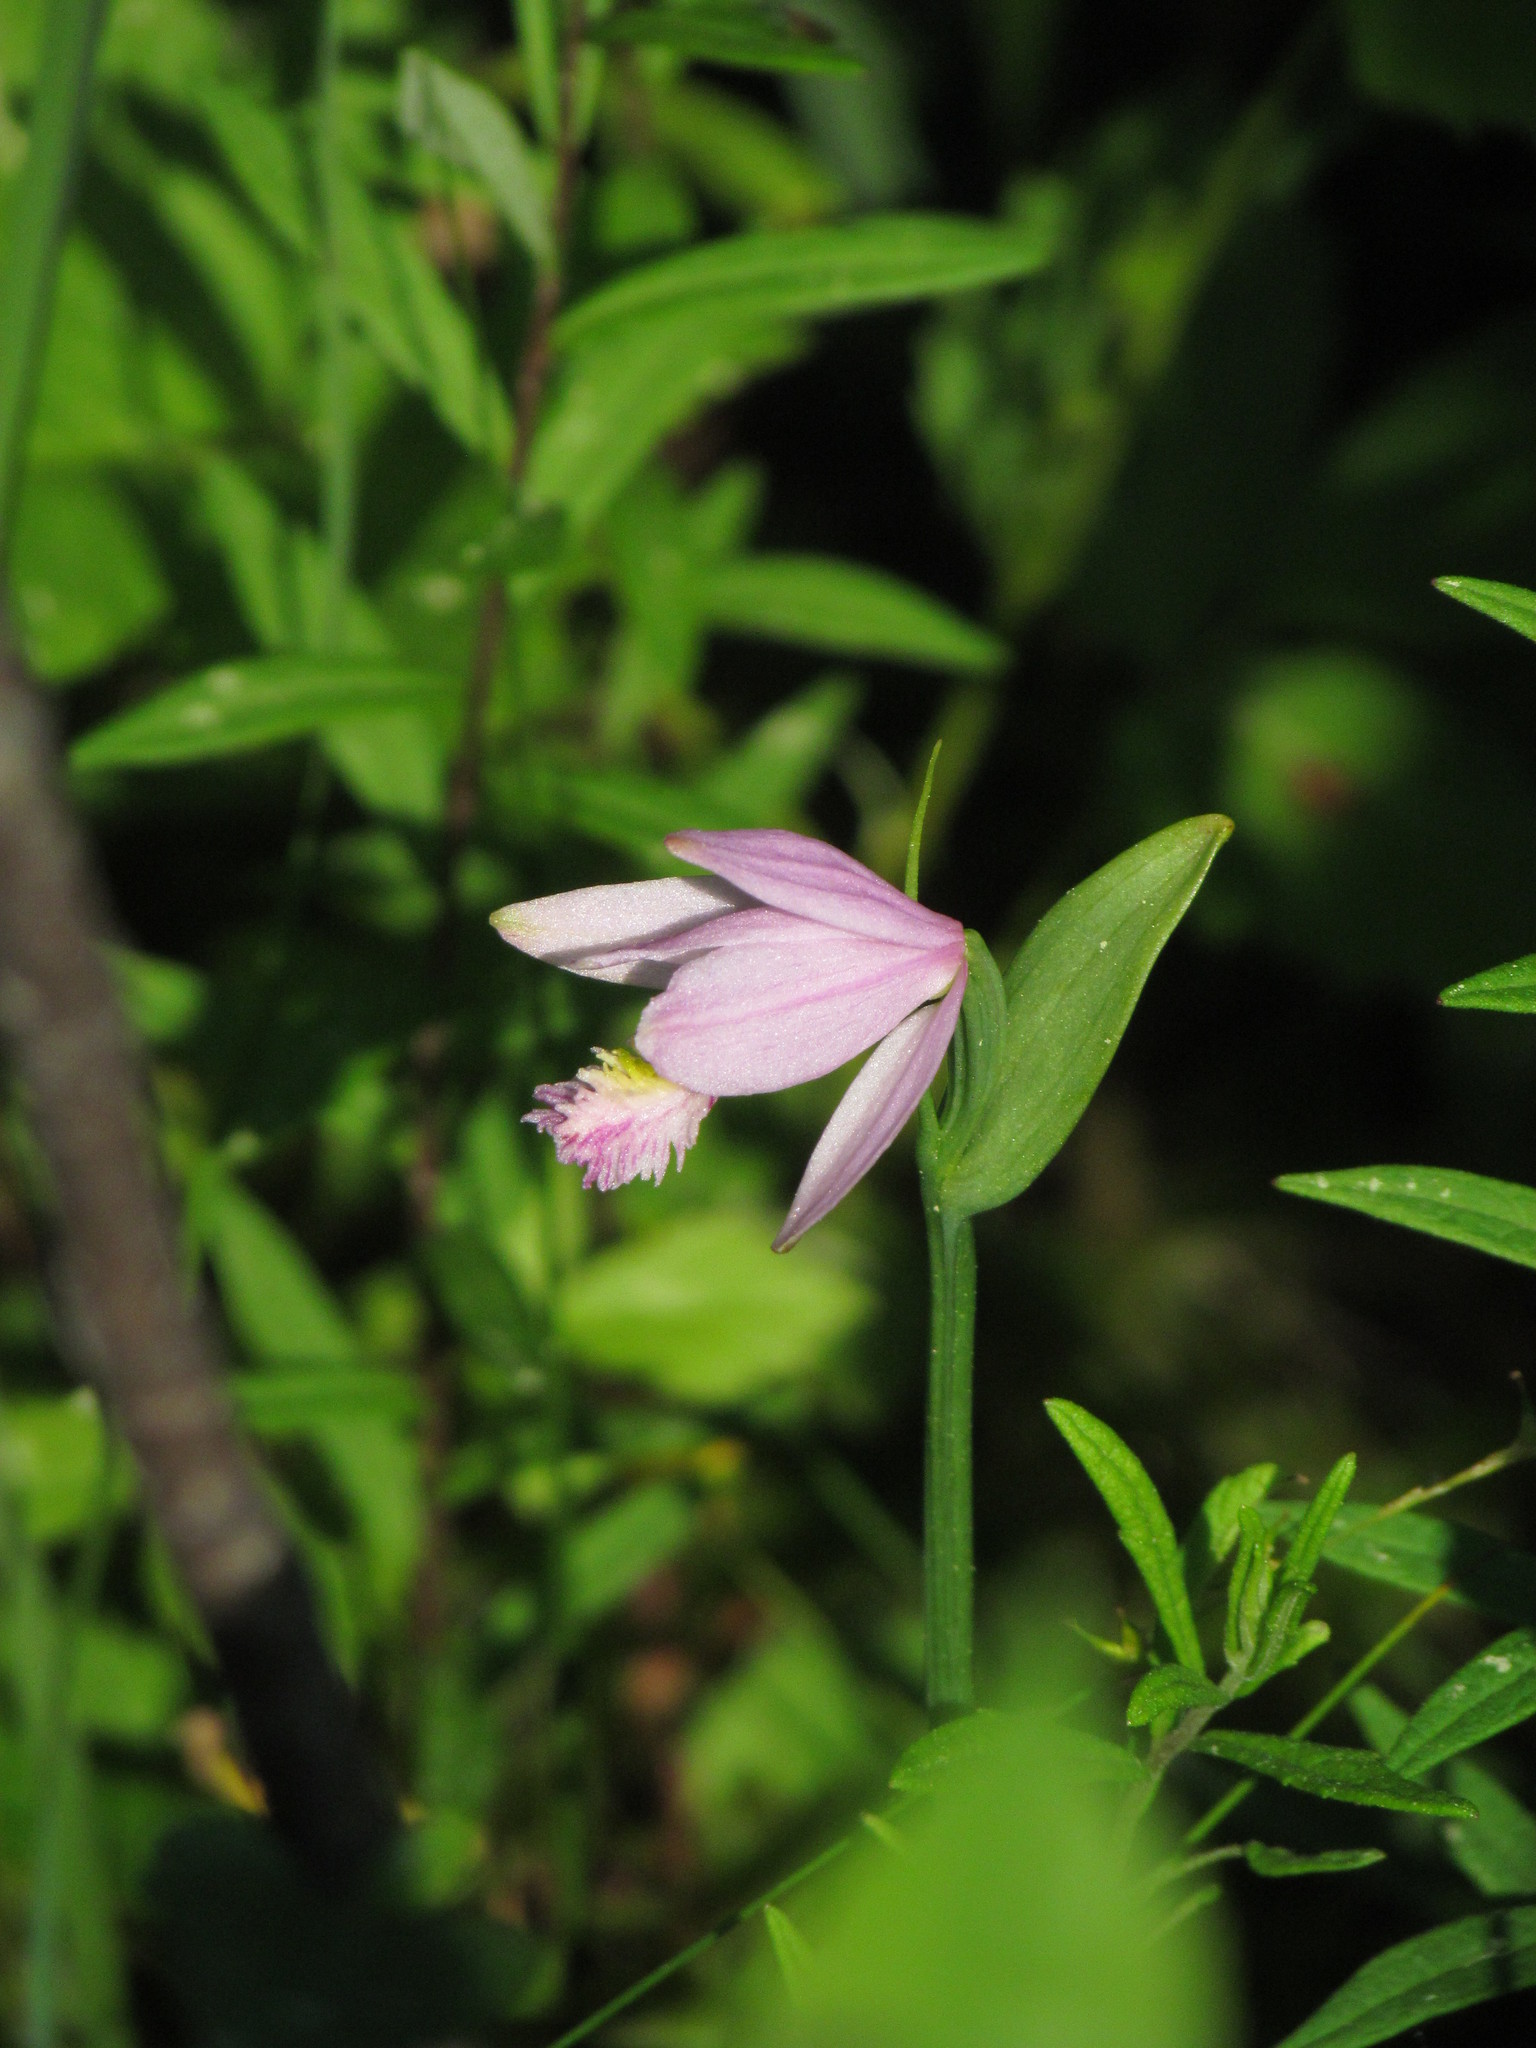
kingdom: Plantae
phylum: Tracheophyta
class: Liliopsida
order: Asparagales
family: Orchidaceae
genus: Pogonia
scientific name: Pogonia ophioglossoides
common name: Rose pogonia
